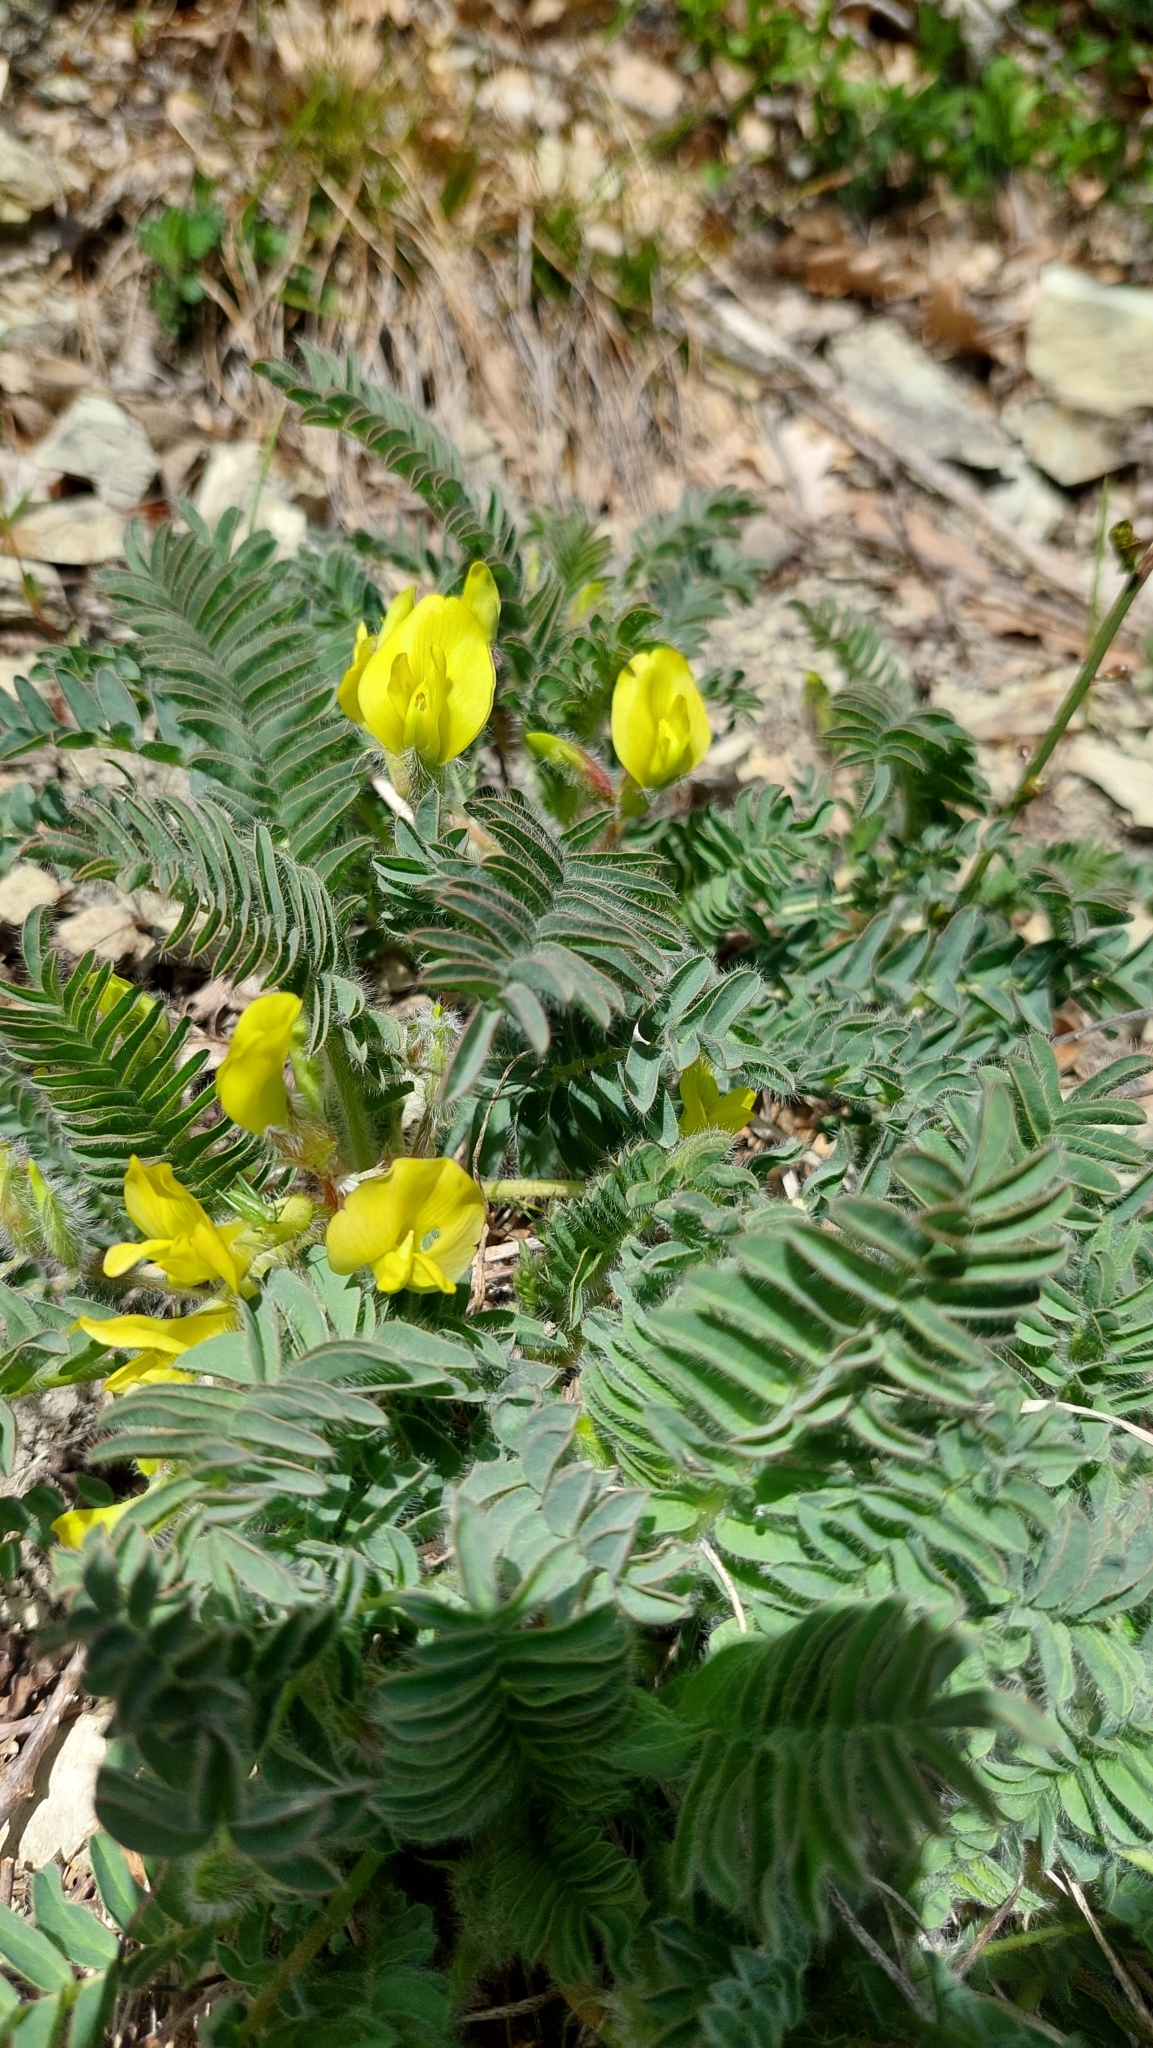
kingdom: Plantae
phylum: Tracheophyta
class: Magnoliopsida
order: Fabales
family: Fabaceae
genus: Astragalus
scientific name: Astragalus utriger
